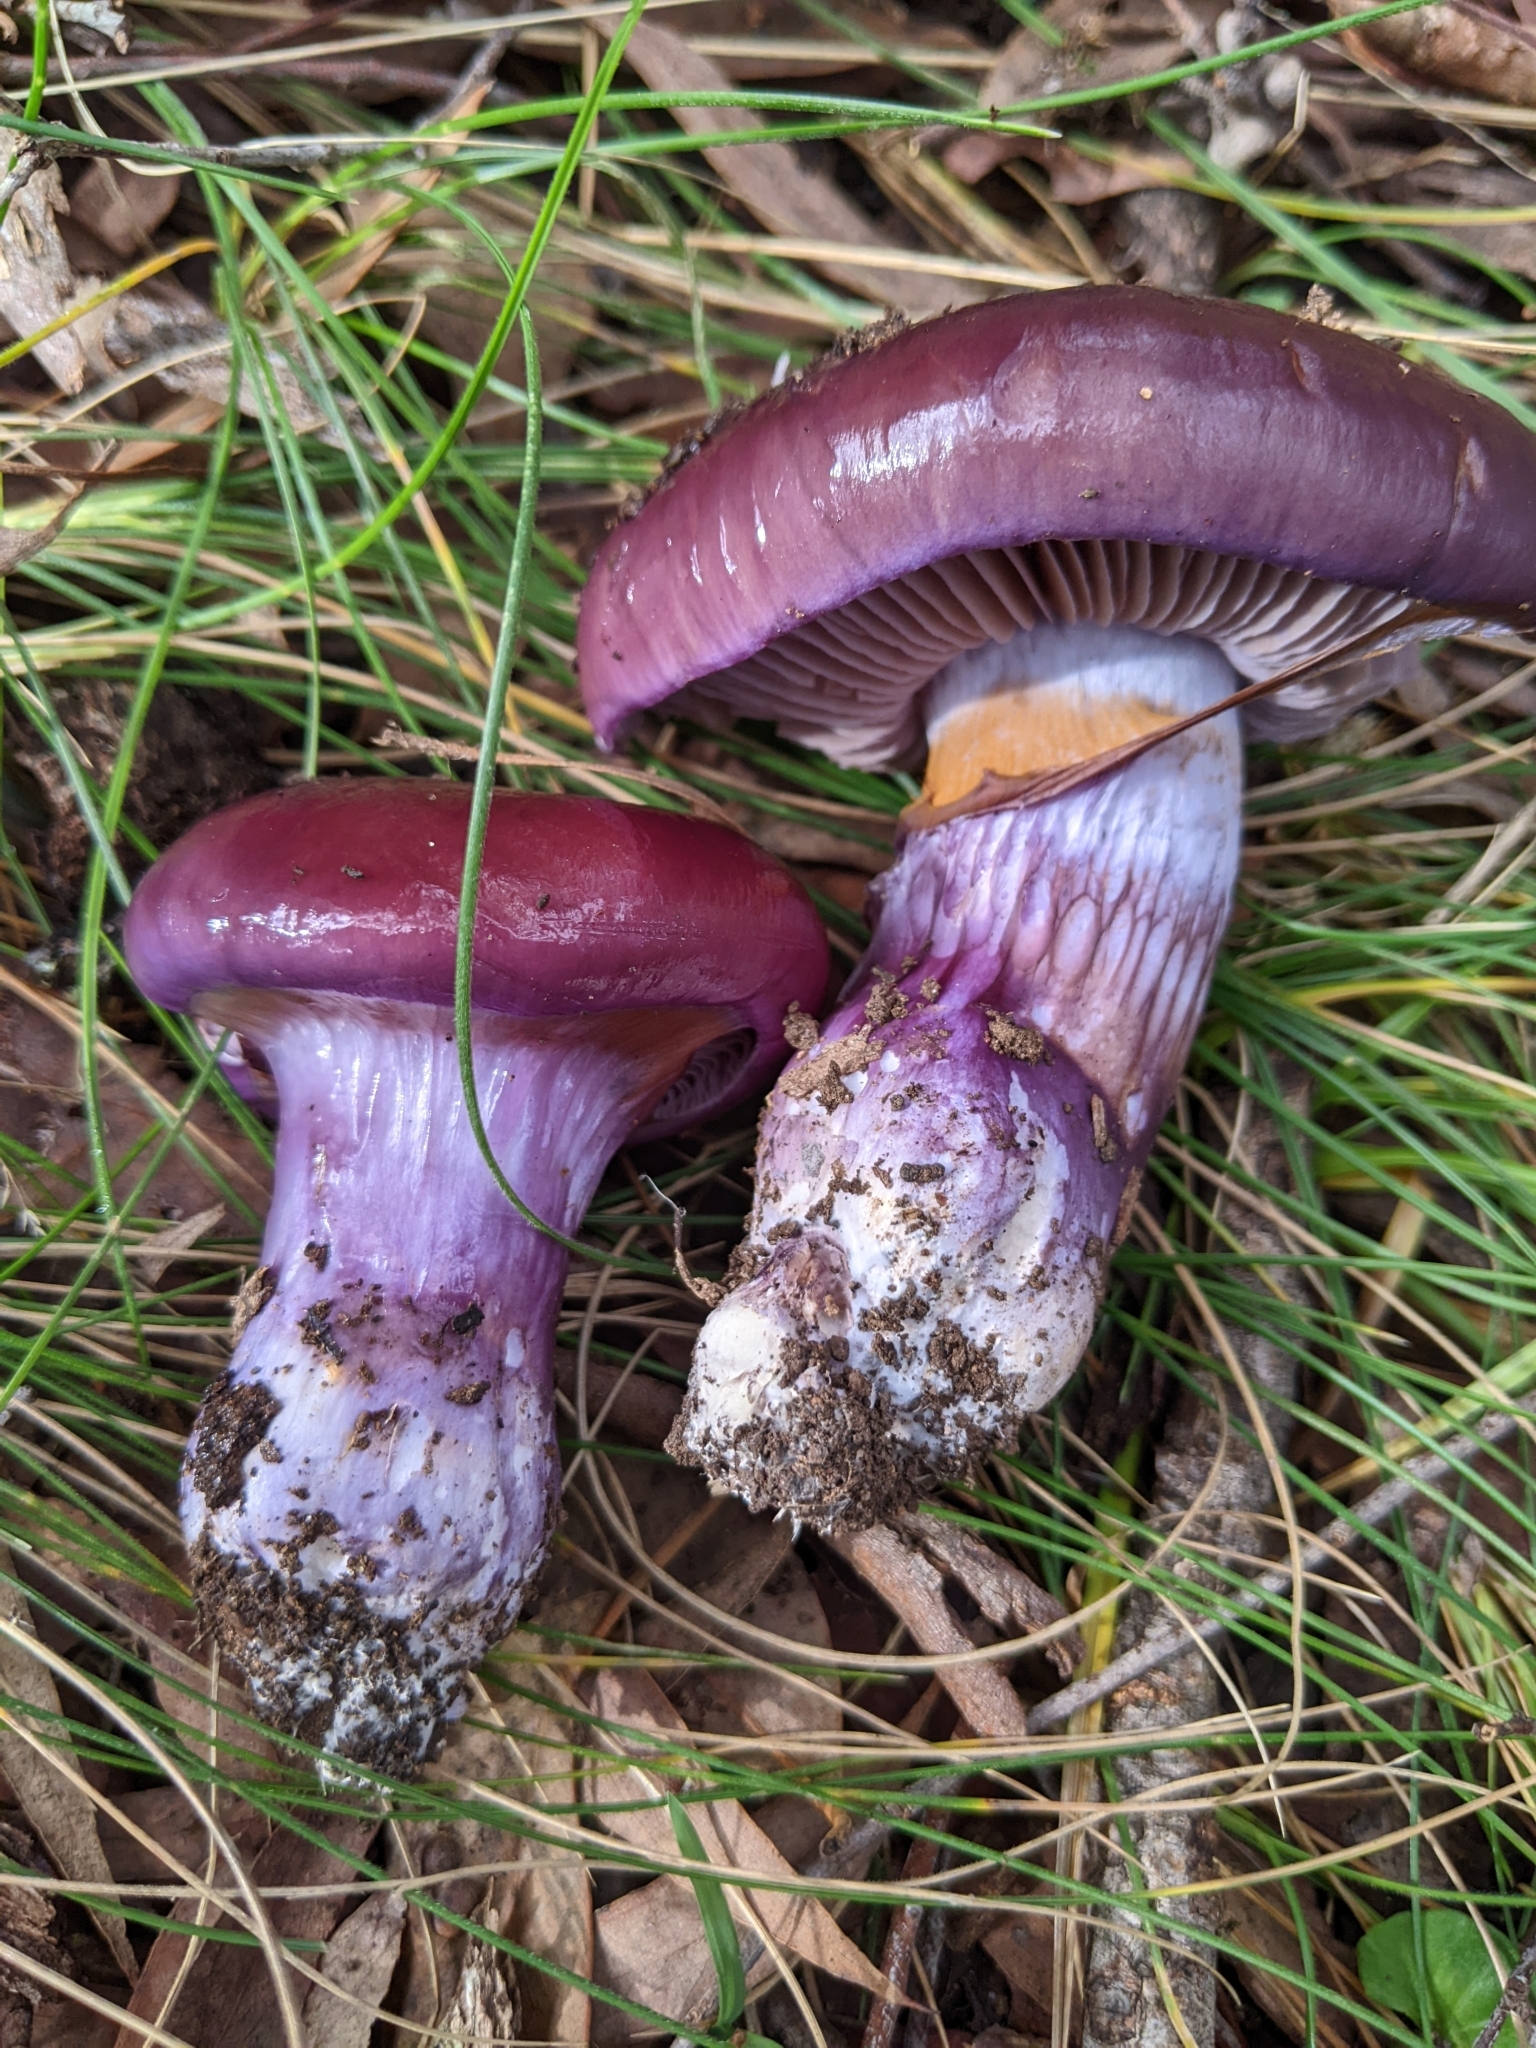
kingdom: Fungi
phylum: Basidiomycota
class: Agaricomycetes
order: Agaricales
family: Cortinariaceae
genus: Cortinarius
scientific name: Cortinarius archeri
